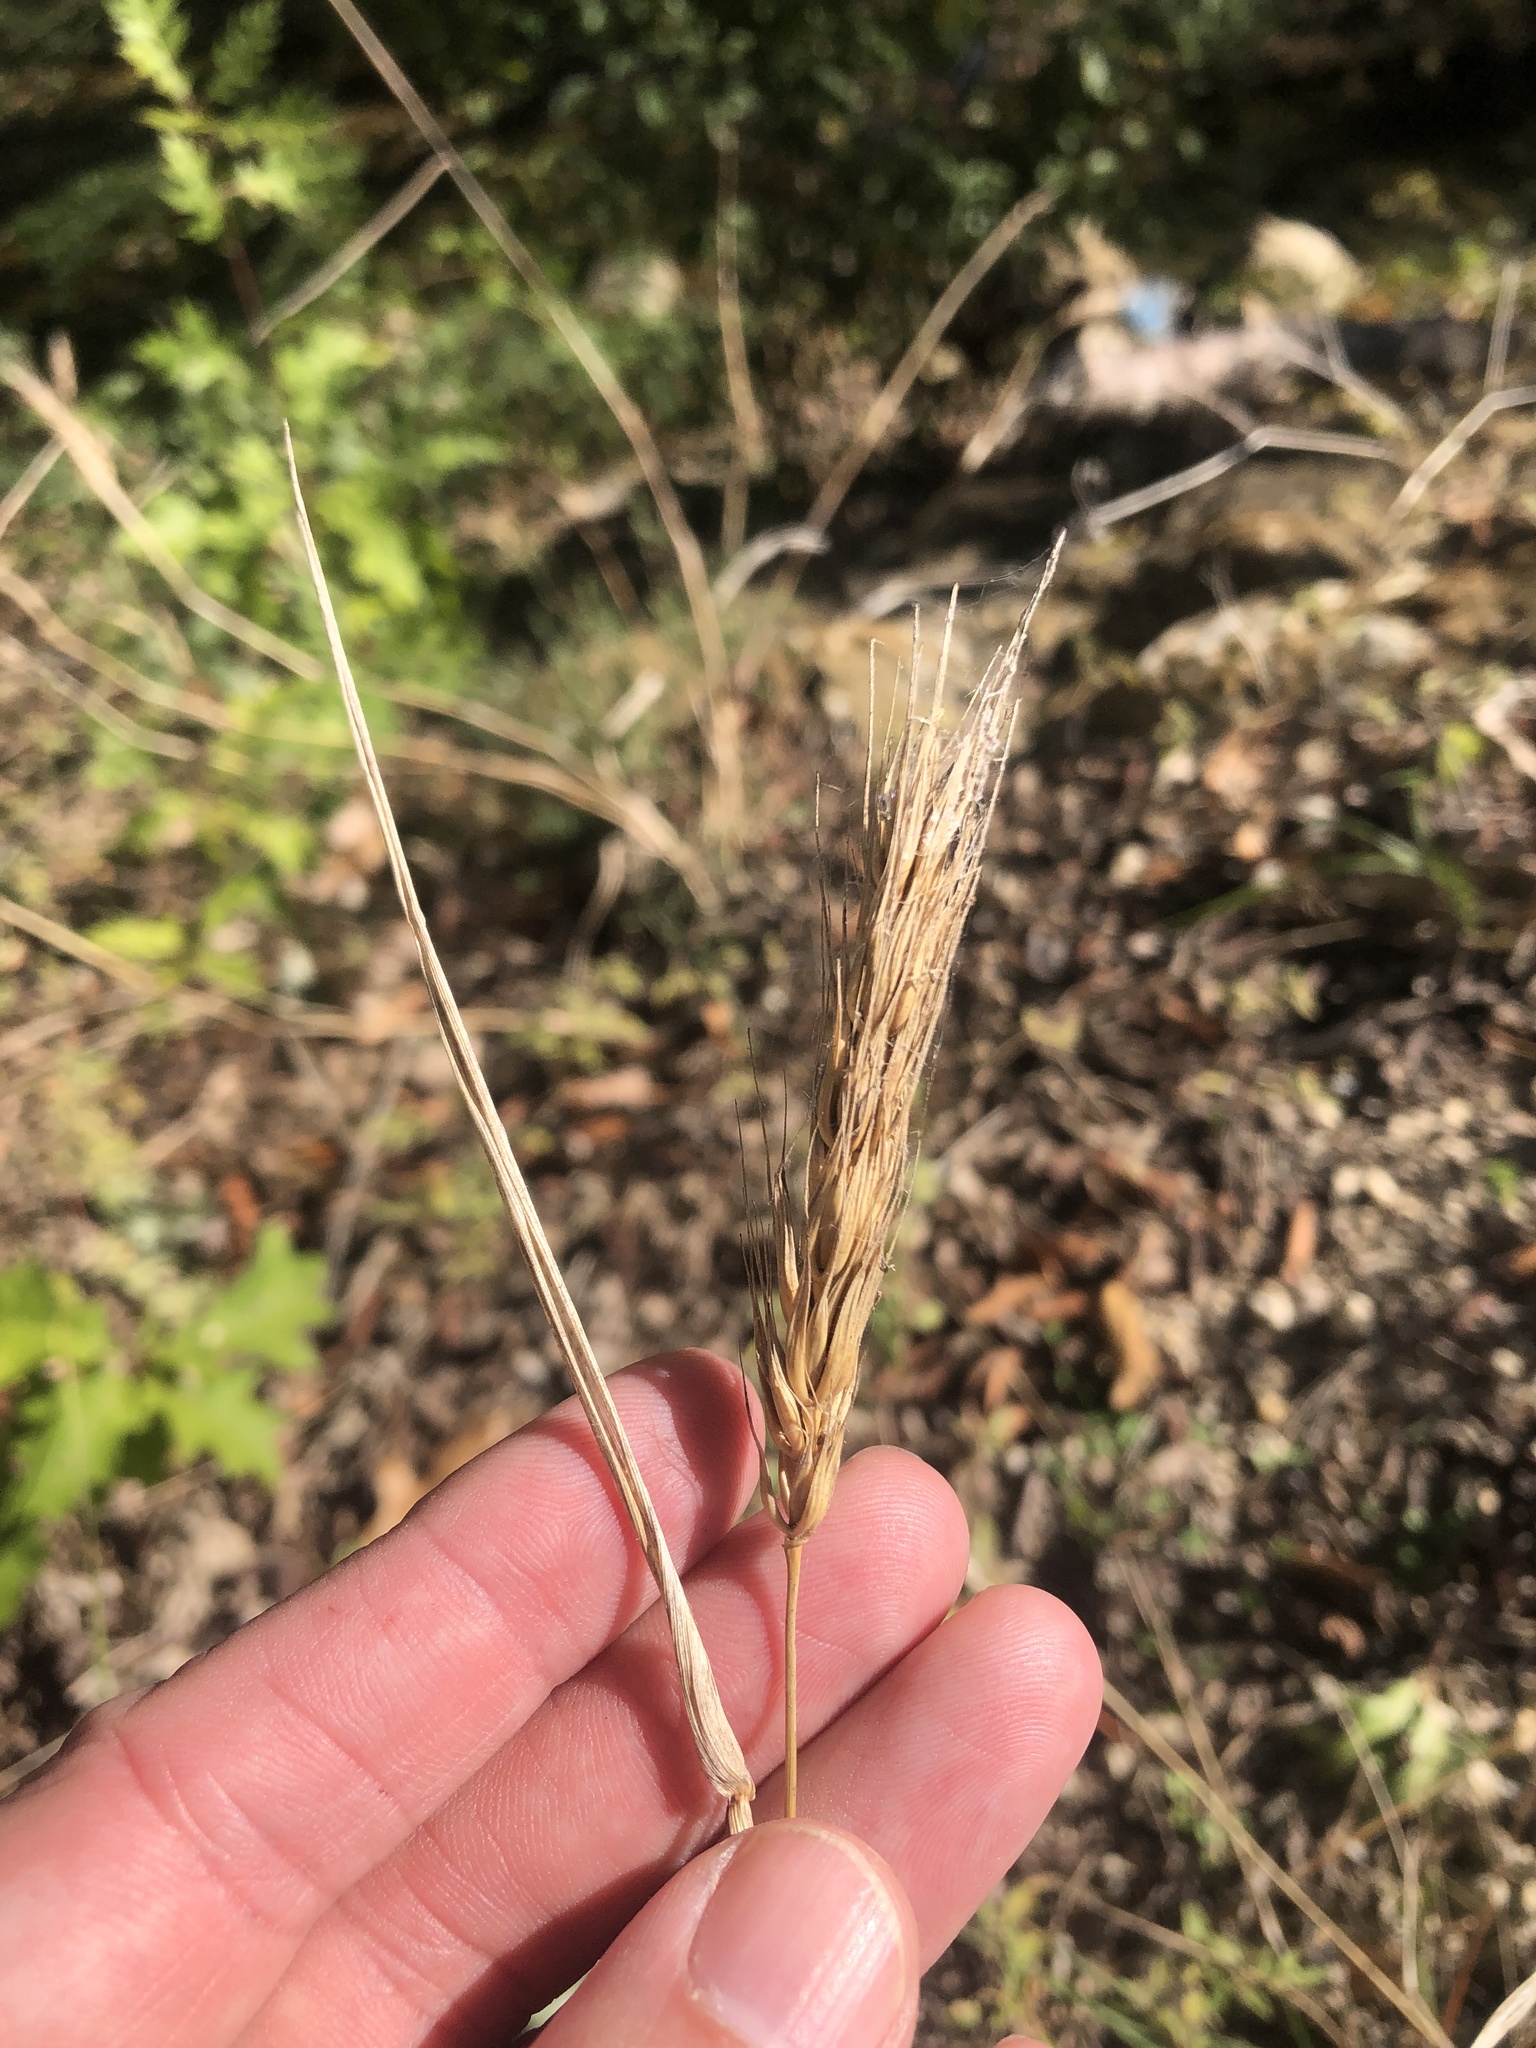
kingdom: Plantae
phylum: Tracheophyta
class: Liliopsida
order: Poales
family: Poaceae
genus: Elymus
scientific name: Elymus virginicus
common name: Common eastern wildrye
